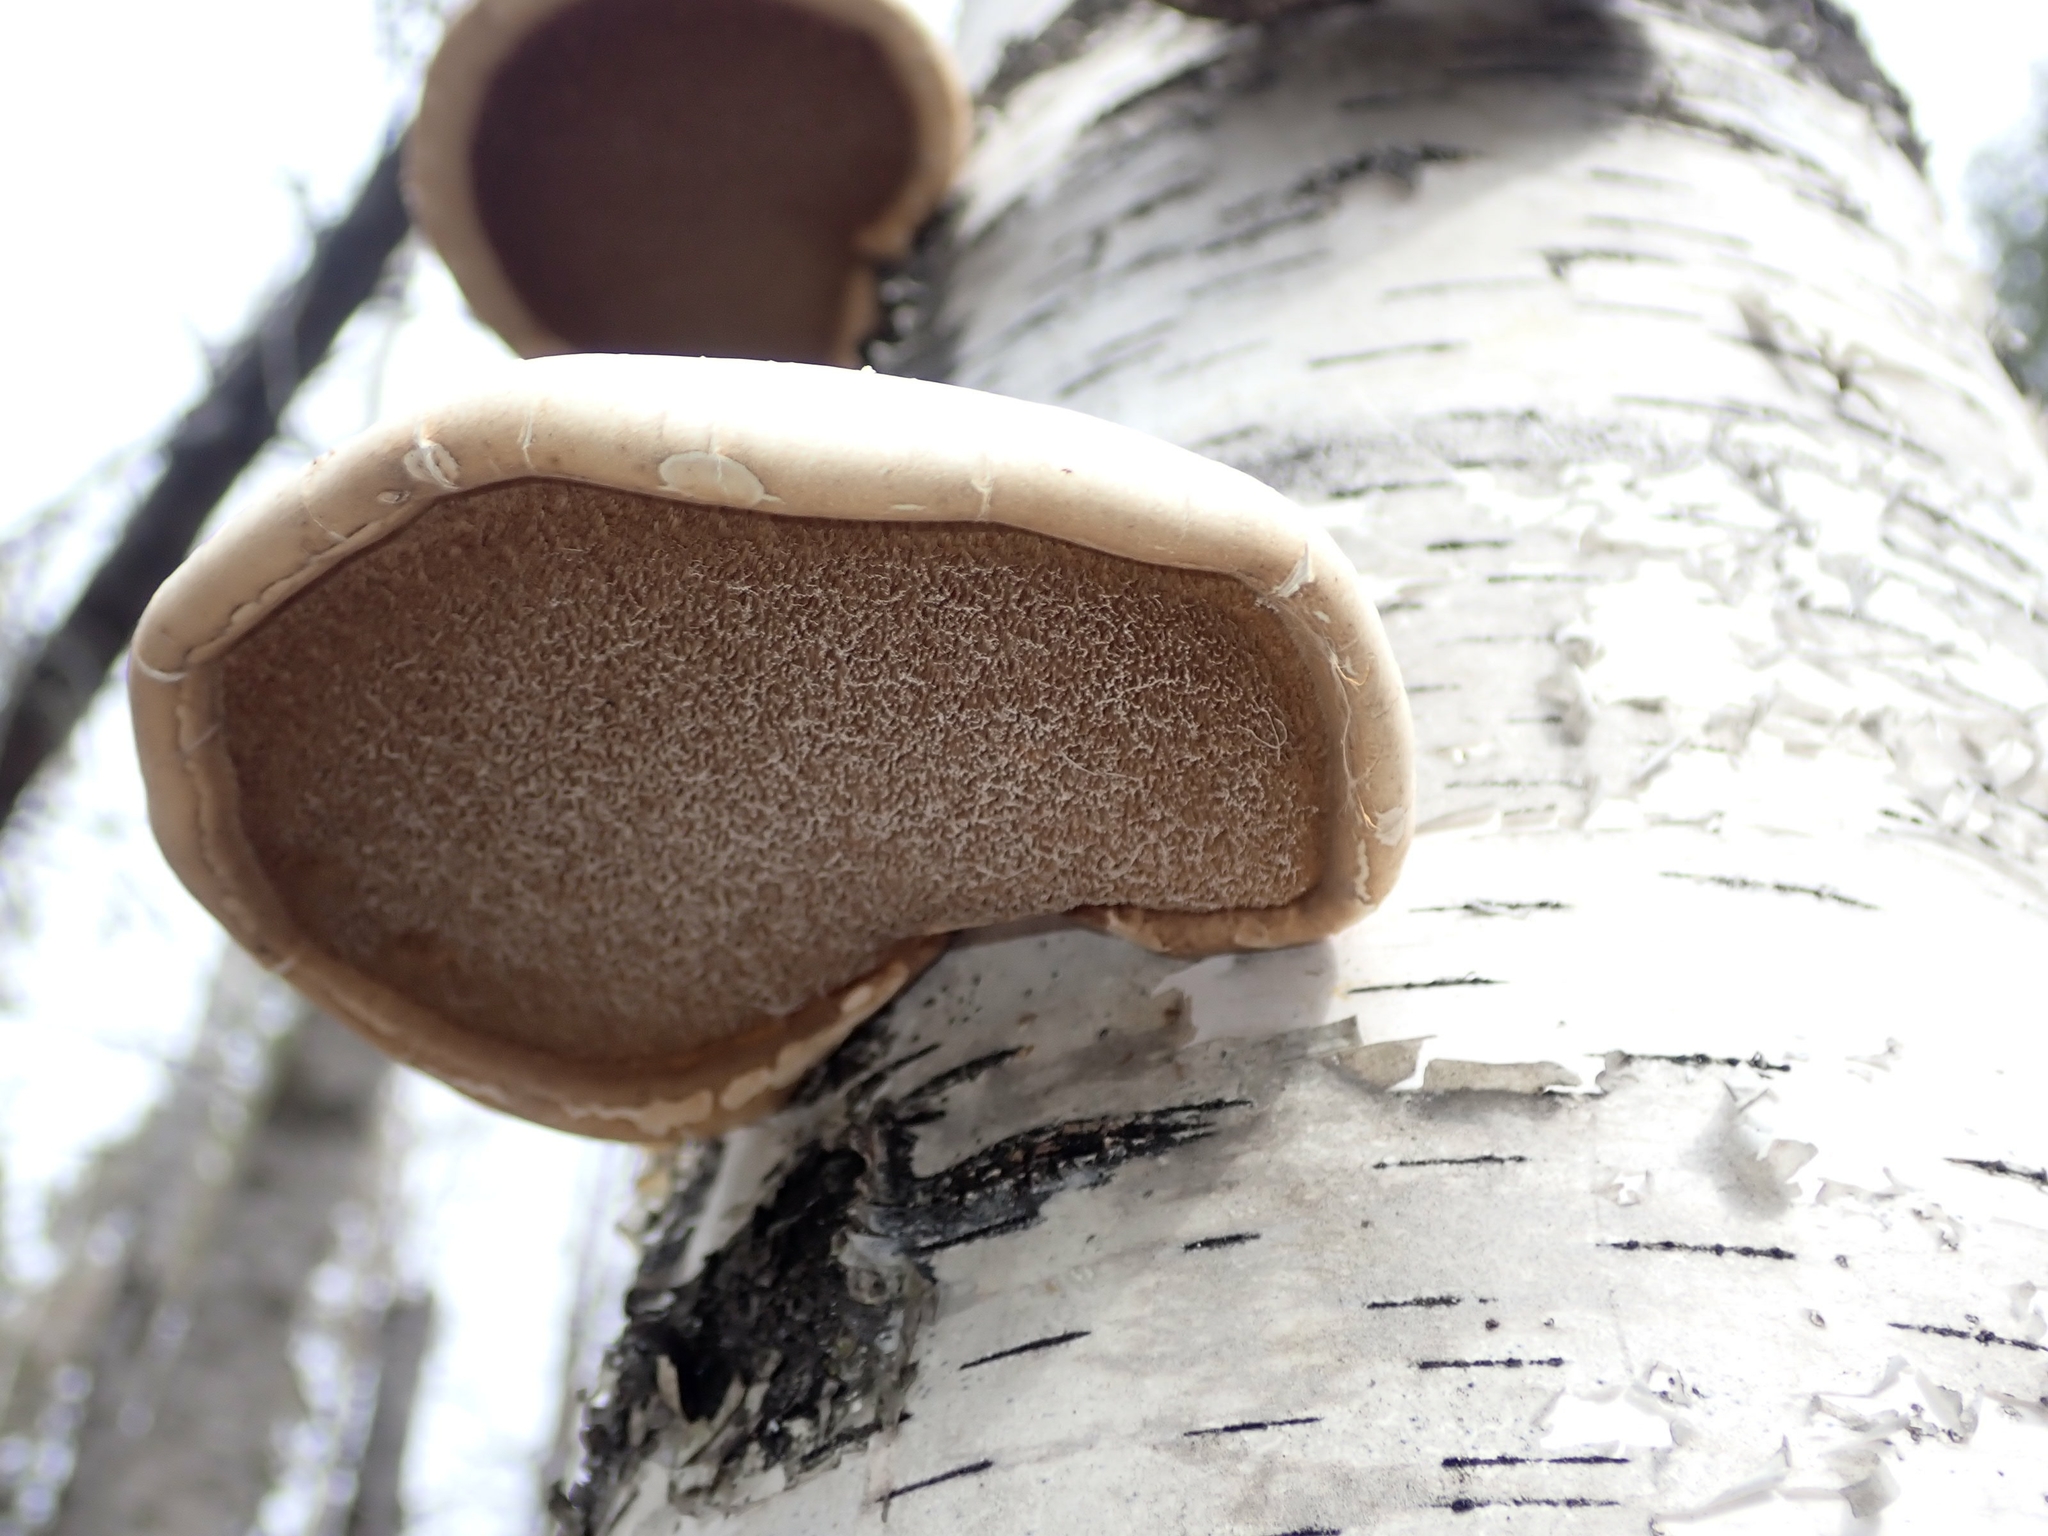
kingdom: Fungi
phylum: Basidiomycota
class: Agaricomycetes
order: Polyporales
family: Fomitopsidaceae
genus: Fomitopsis
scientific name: Fomitopsis betulina
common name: Birch polypore
